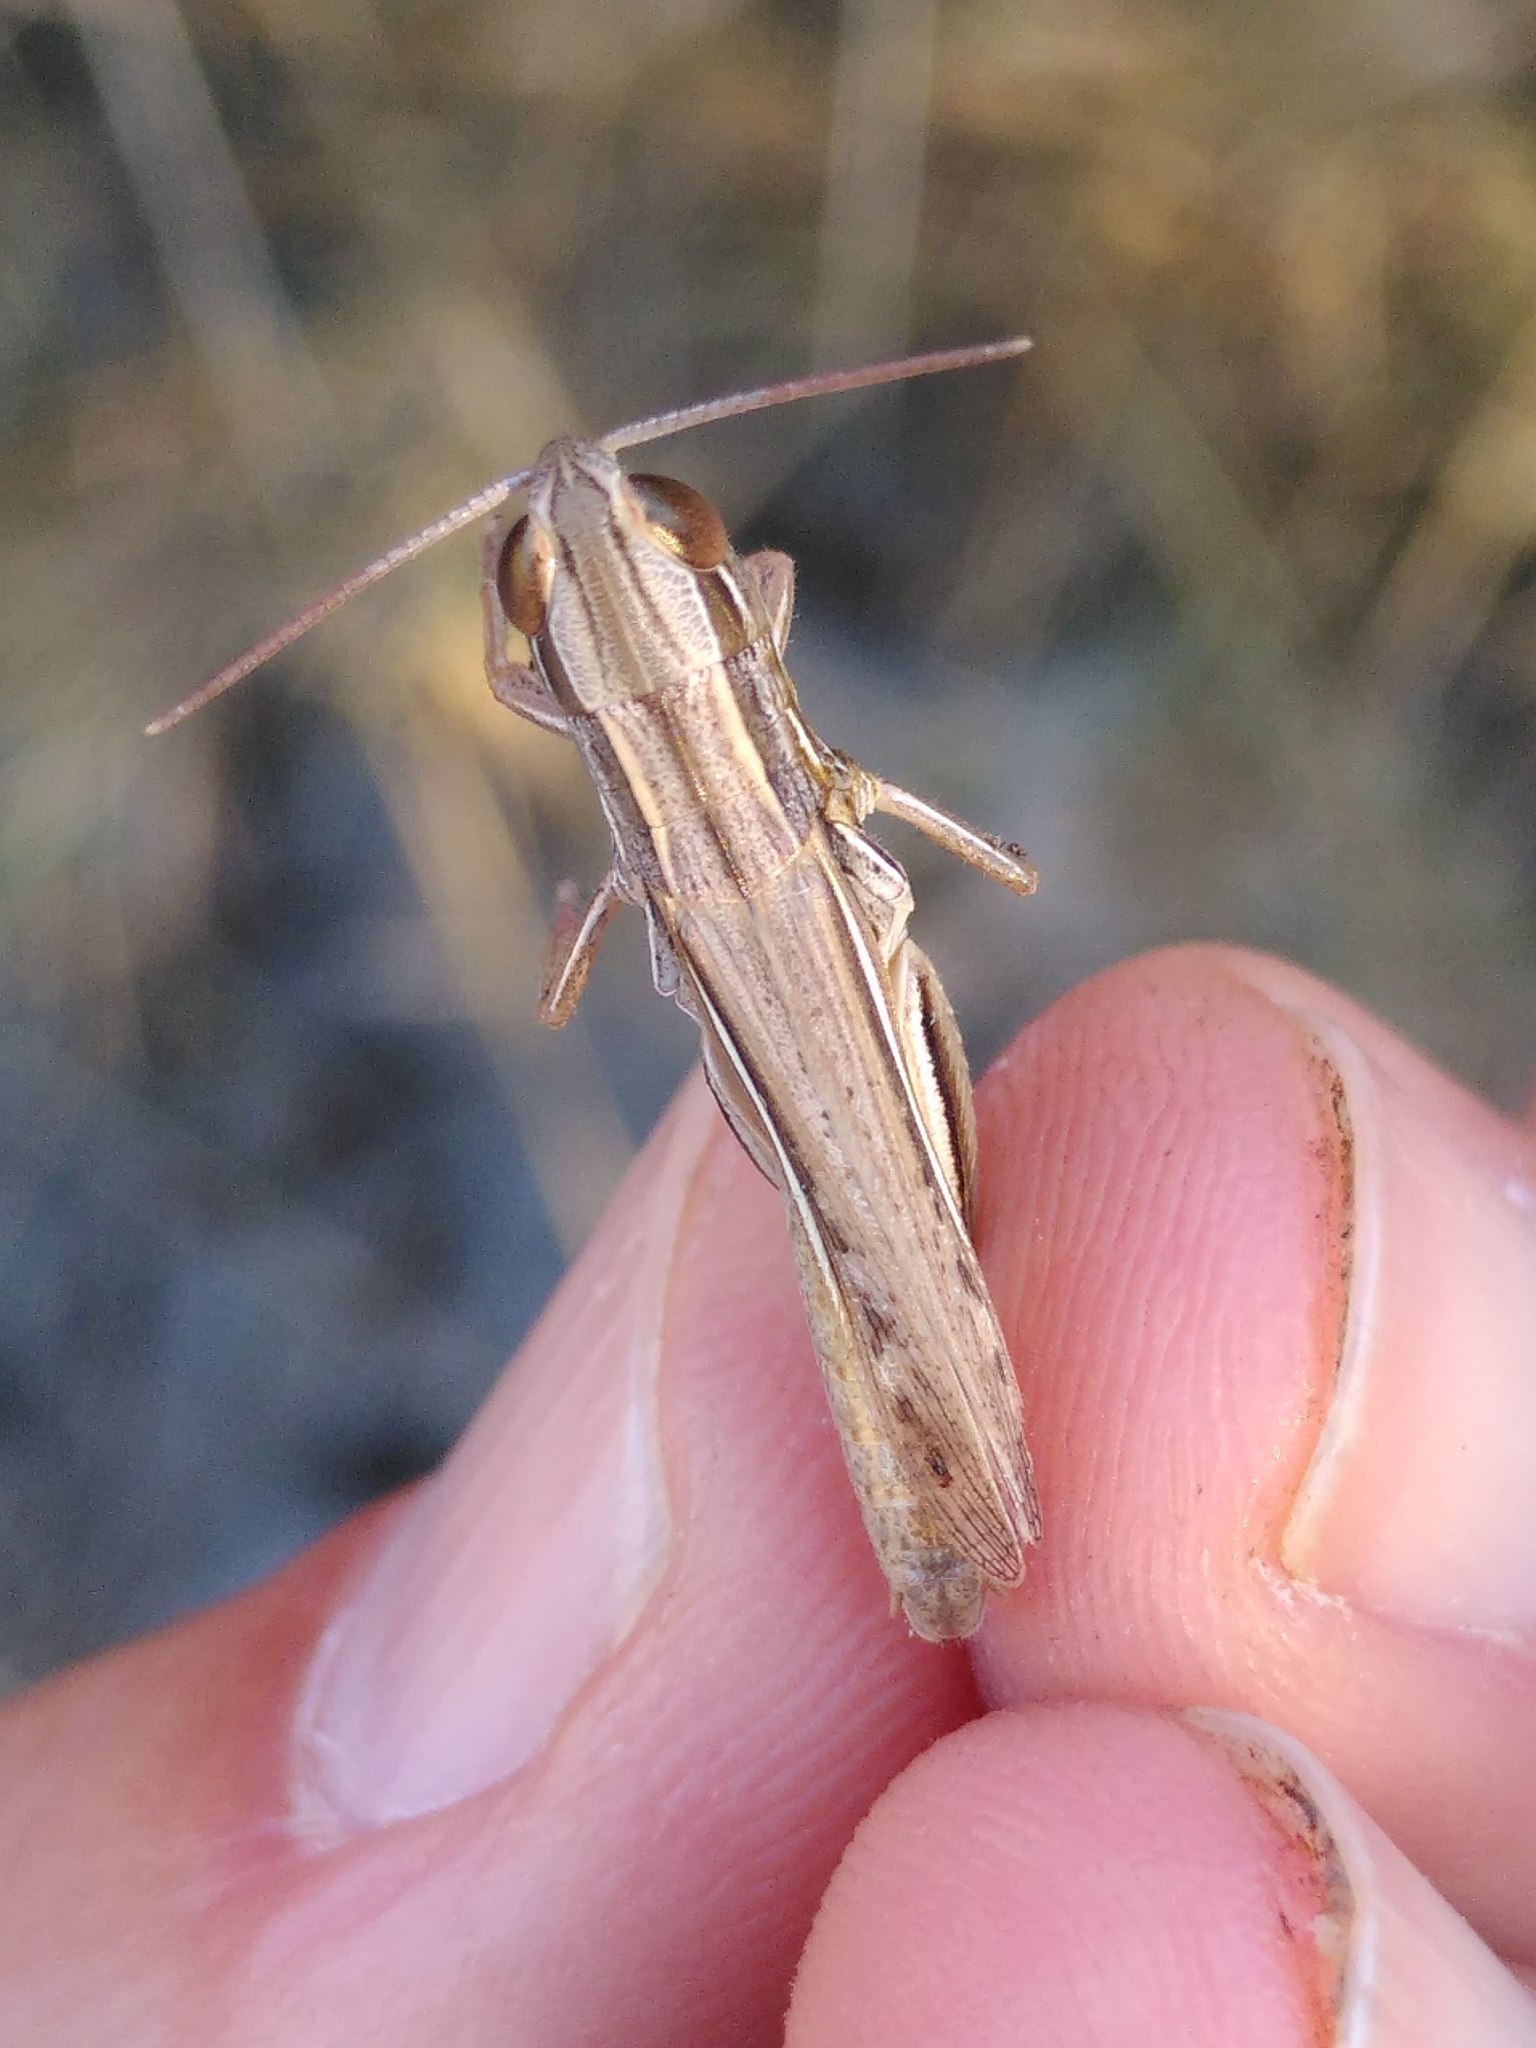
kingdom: Animalia
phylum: Arthropoda
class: Insecta
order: Orthoptera
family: Acrididae
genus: Euchorthippus
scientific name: Euchorthippus chopardi
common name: Iberian straw grasshopper
